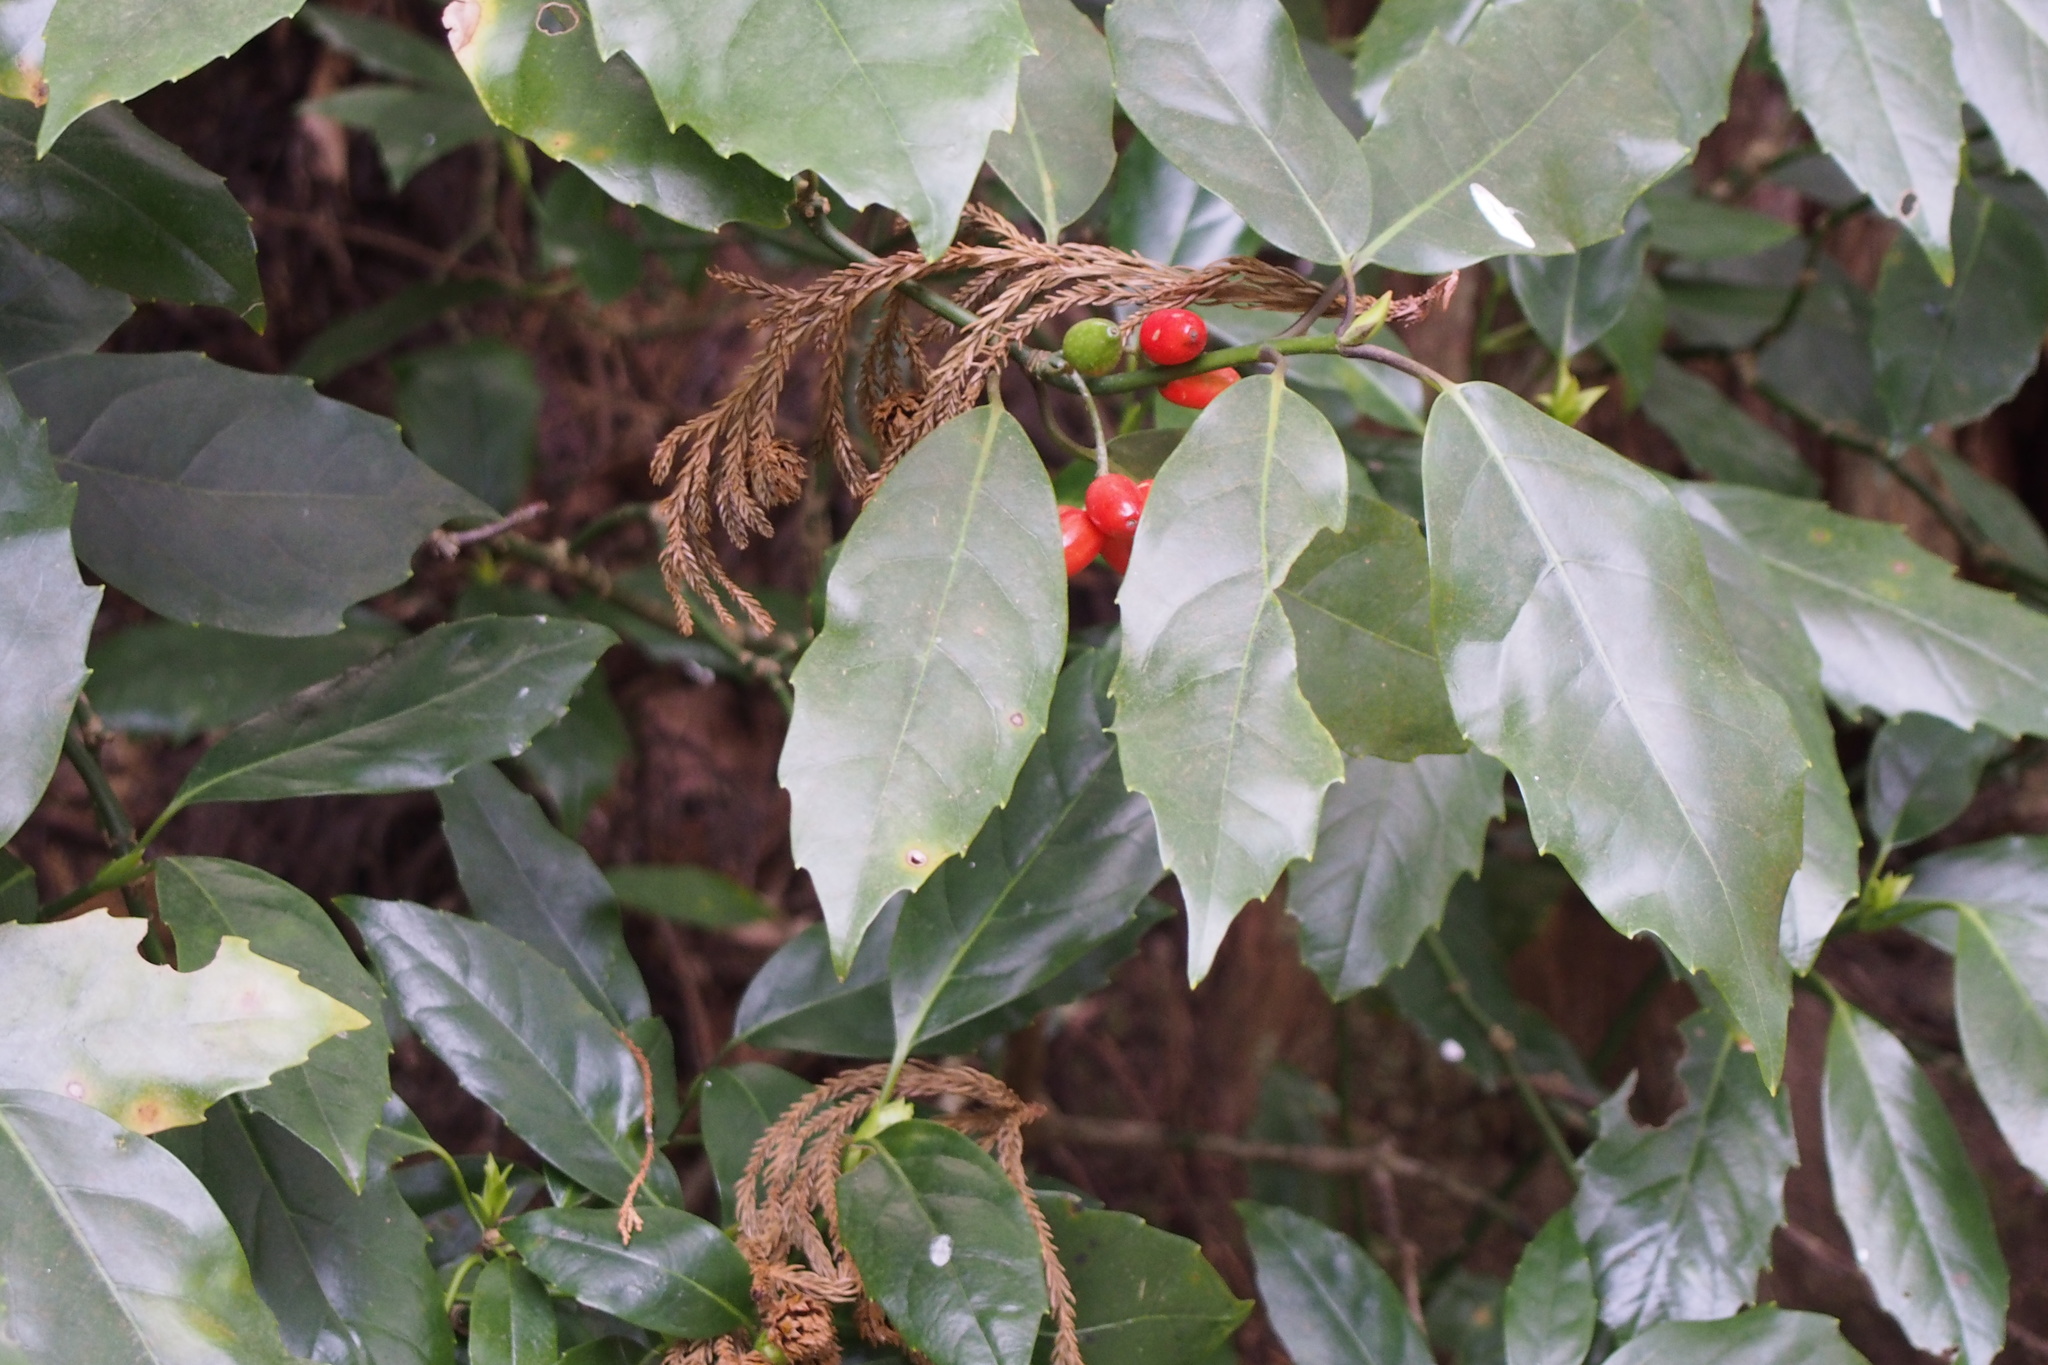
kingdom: Plantae
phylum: Tracheophyta
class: Magnoliopsida
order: Garryales
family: Garryaceae
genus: Aucuba
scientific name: Aucuba japonica
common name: Spotted-laurel
